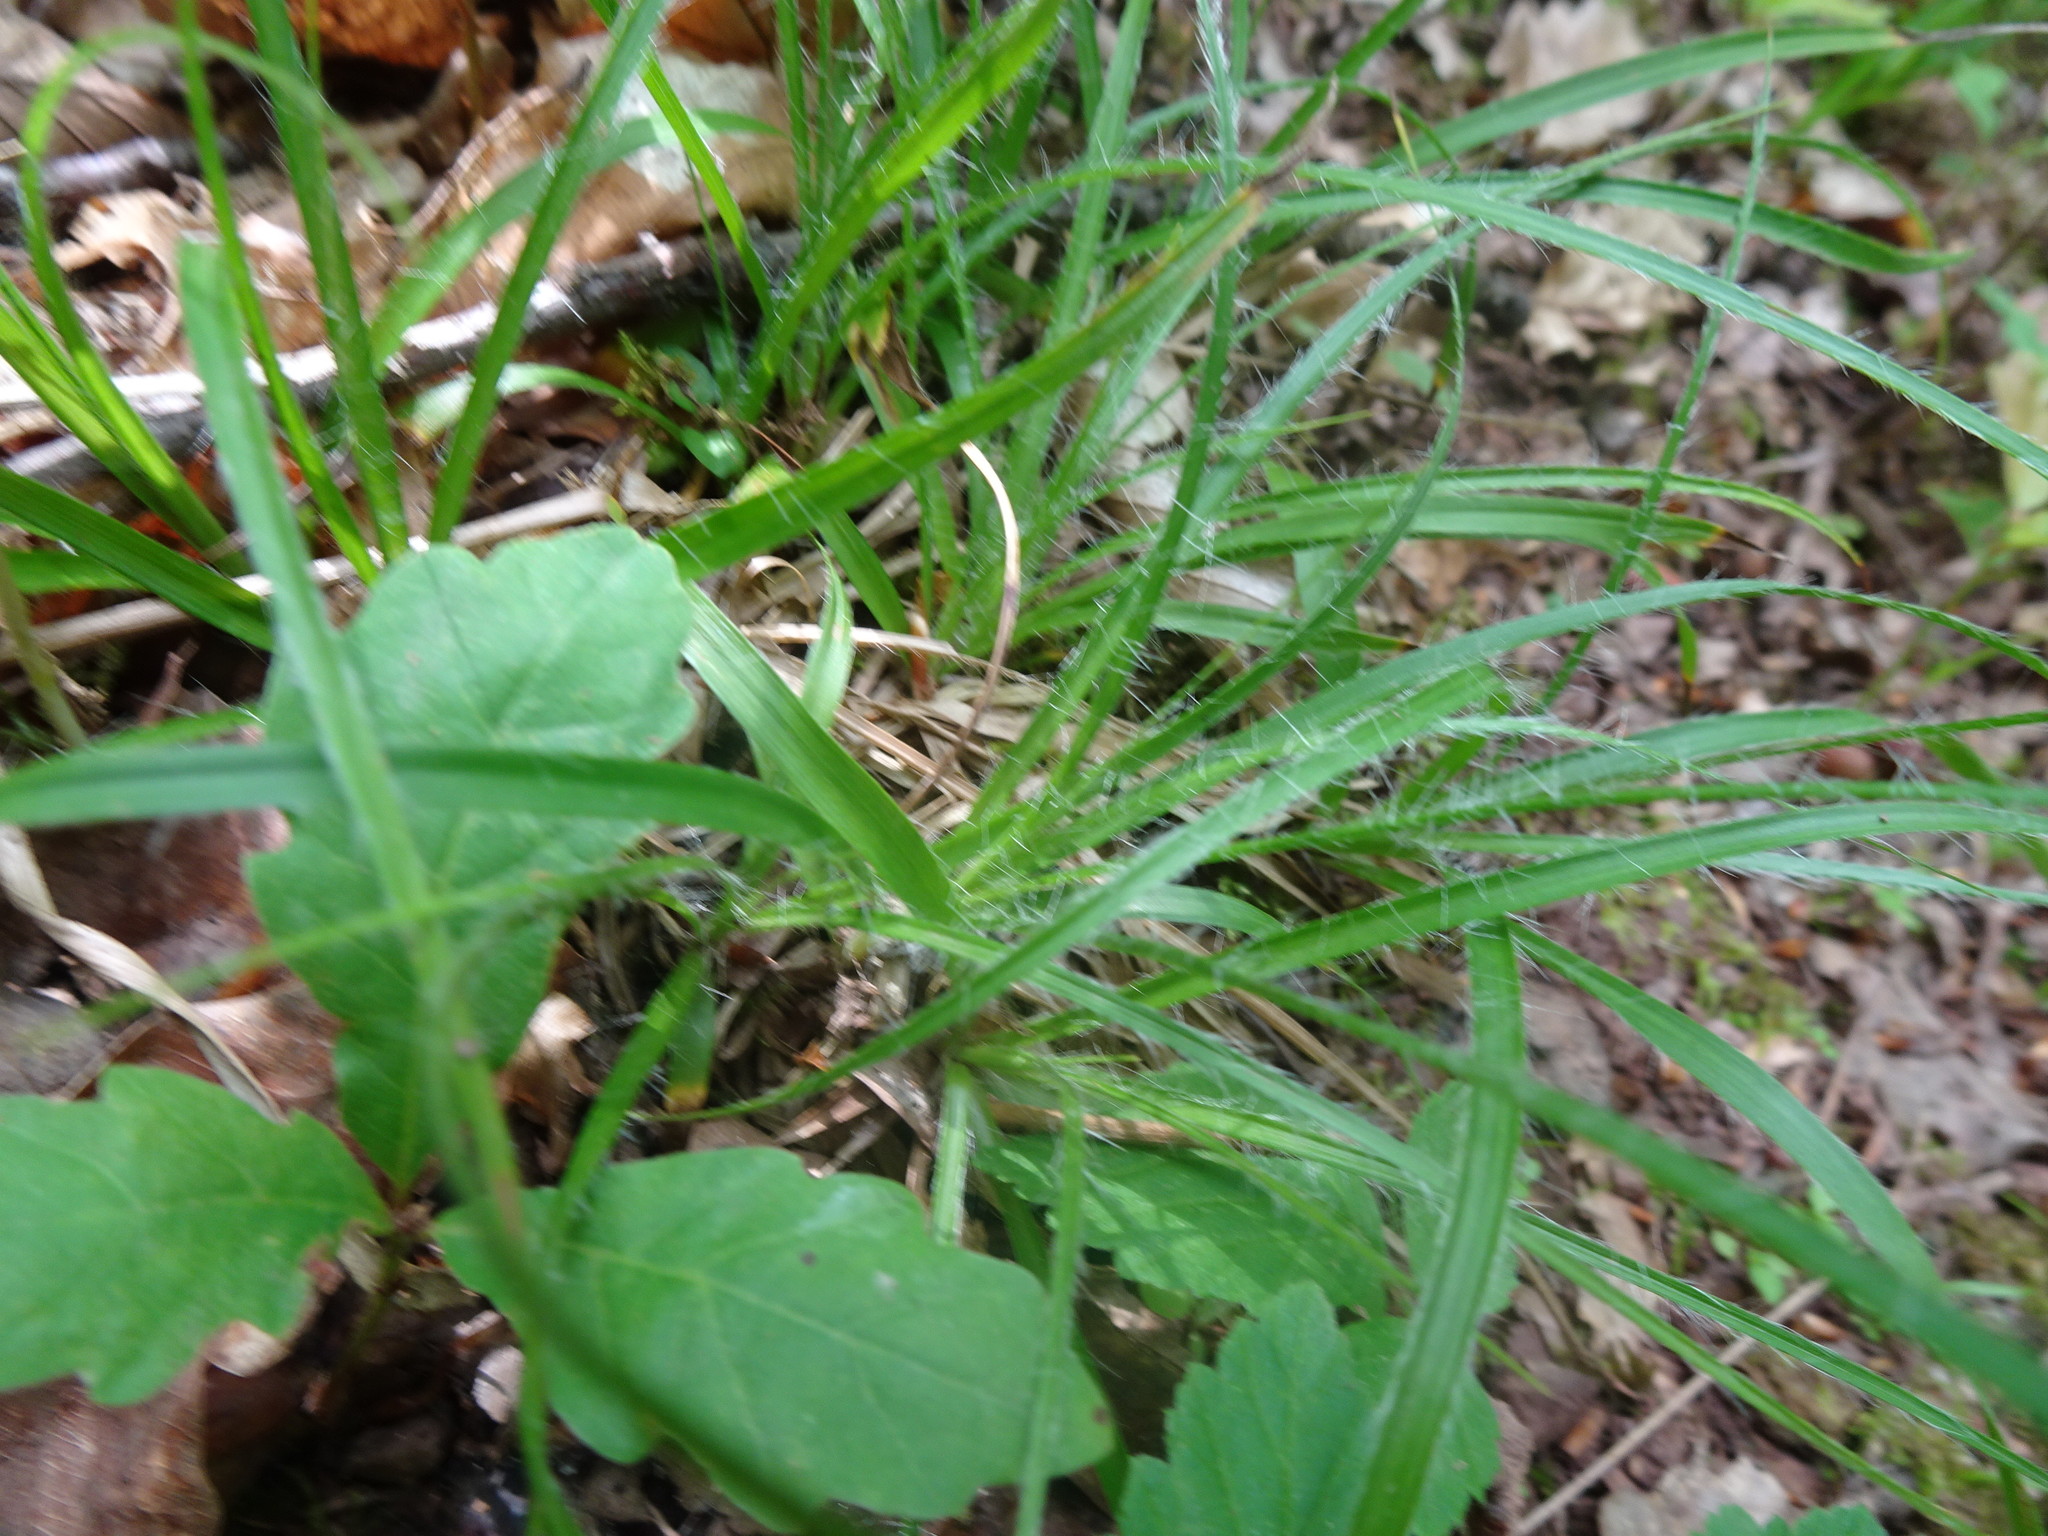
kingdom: Plantae
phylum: Tracheophyta
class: Liliopsida
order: Poales
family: Juncaceae
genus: Luzula
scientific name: Luzula pilosa
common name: Hairy wood-rush
